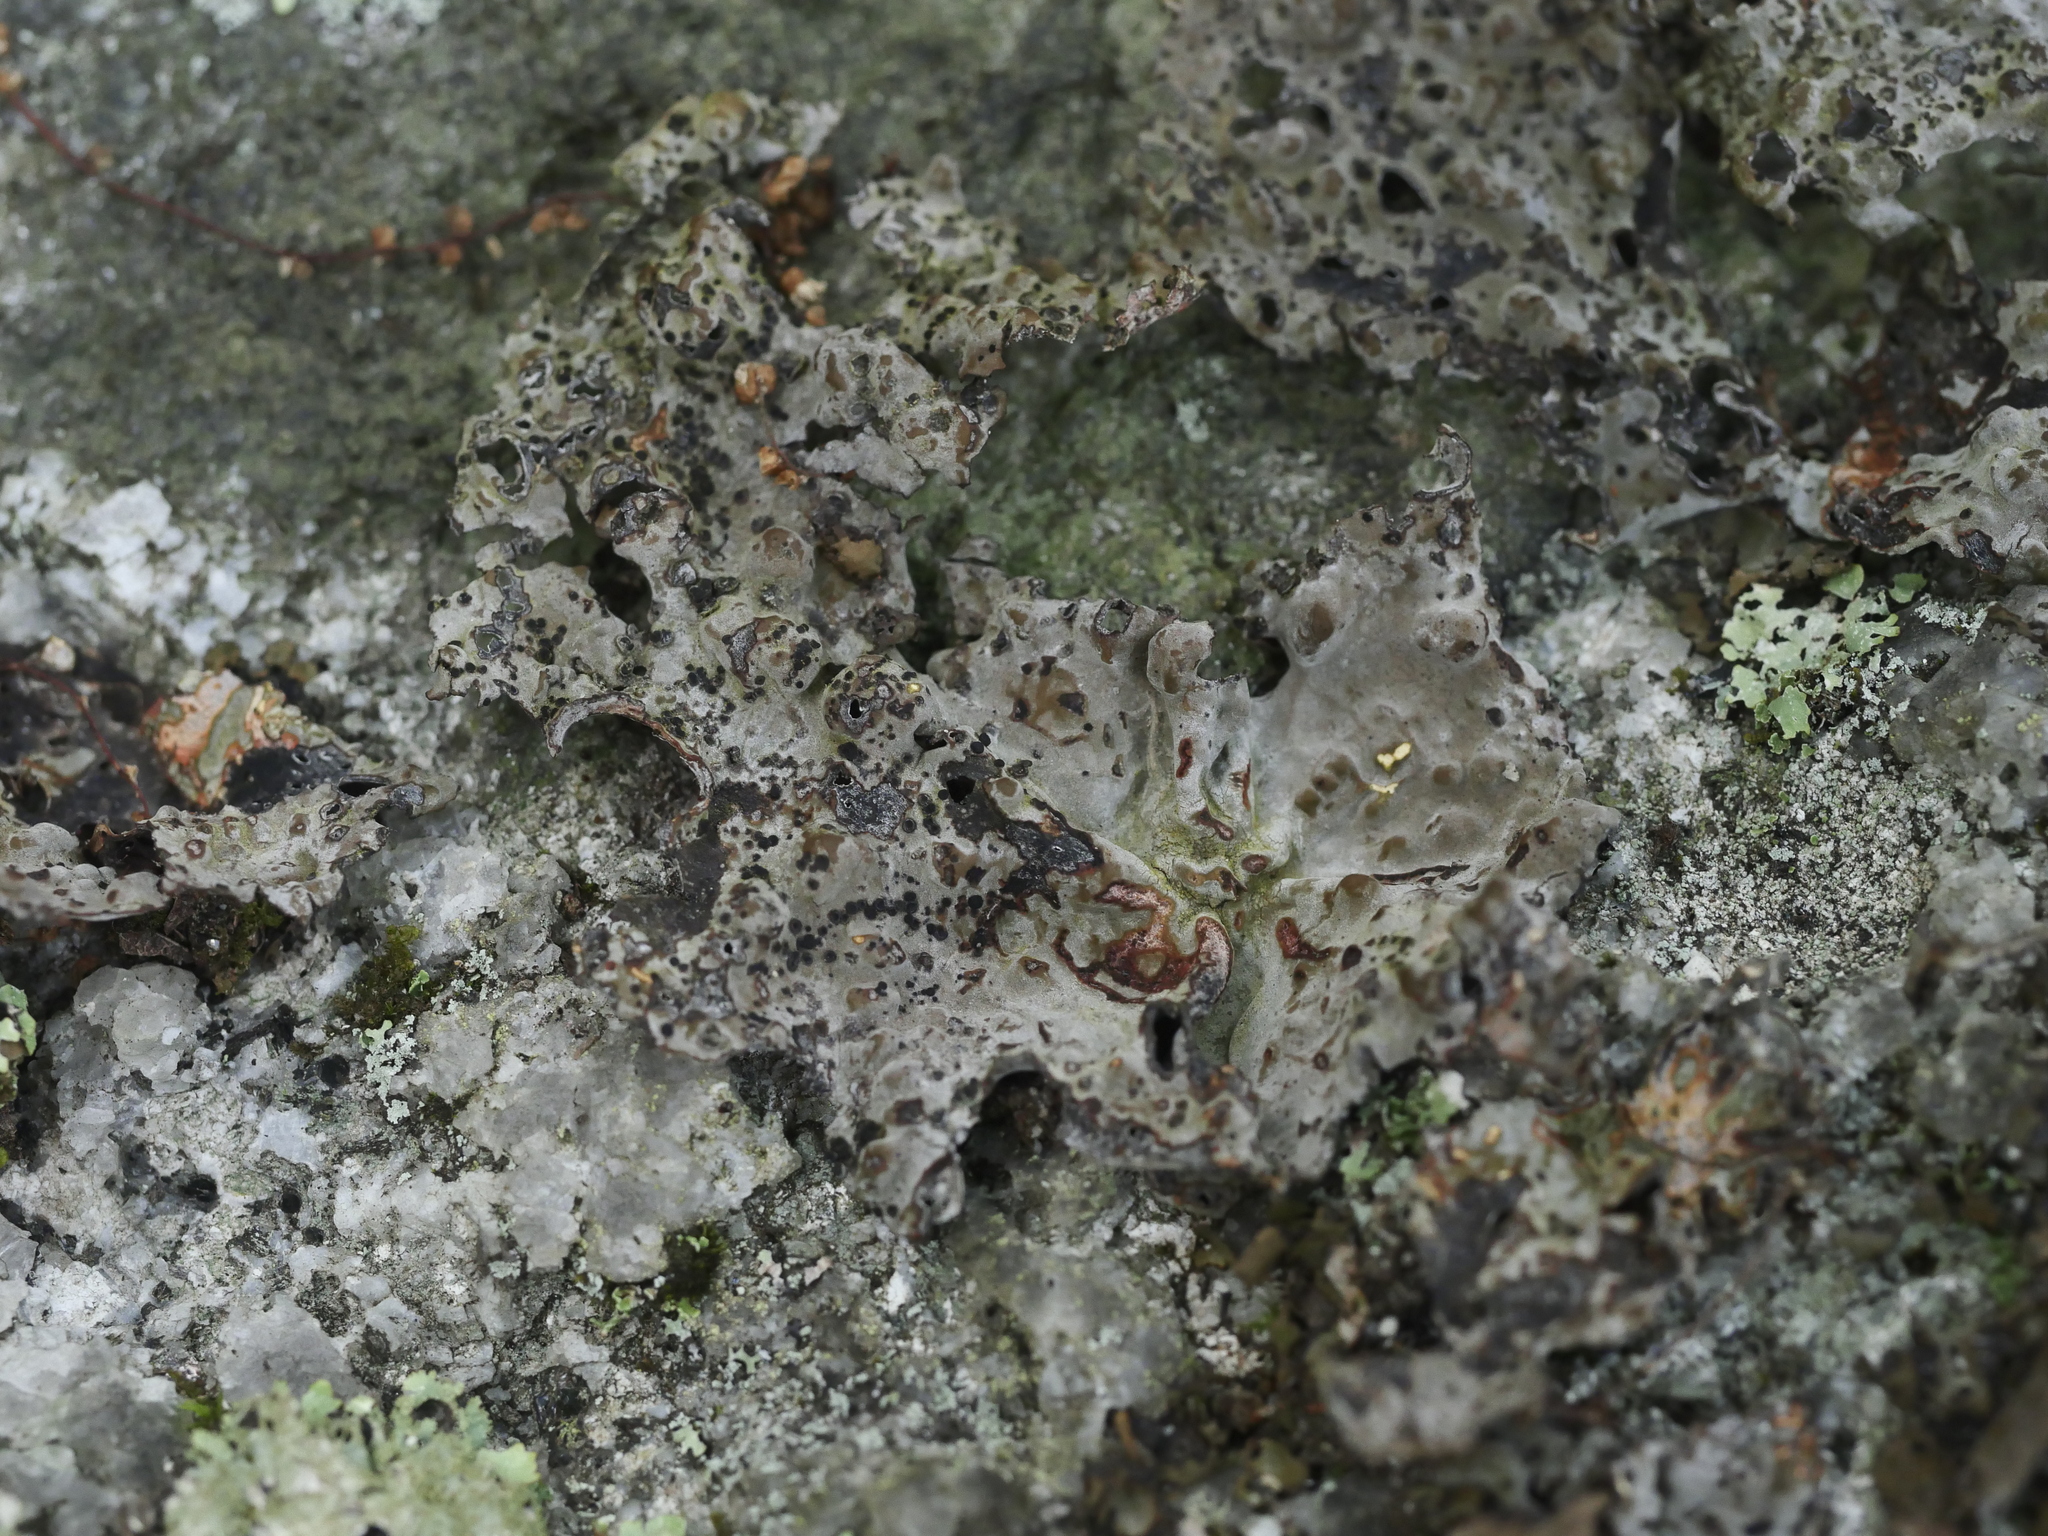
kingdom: Fungi
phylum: Ascomycota
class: Lecanoromycetes
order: Umbilicariales
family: Umbilicariaceae
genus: Lasallia
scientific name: Lasallia papulosa
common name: Common toadskin lichen
